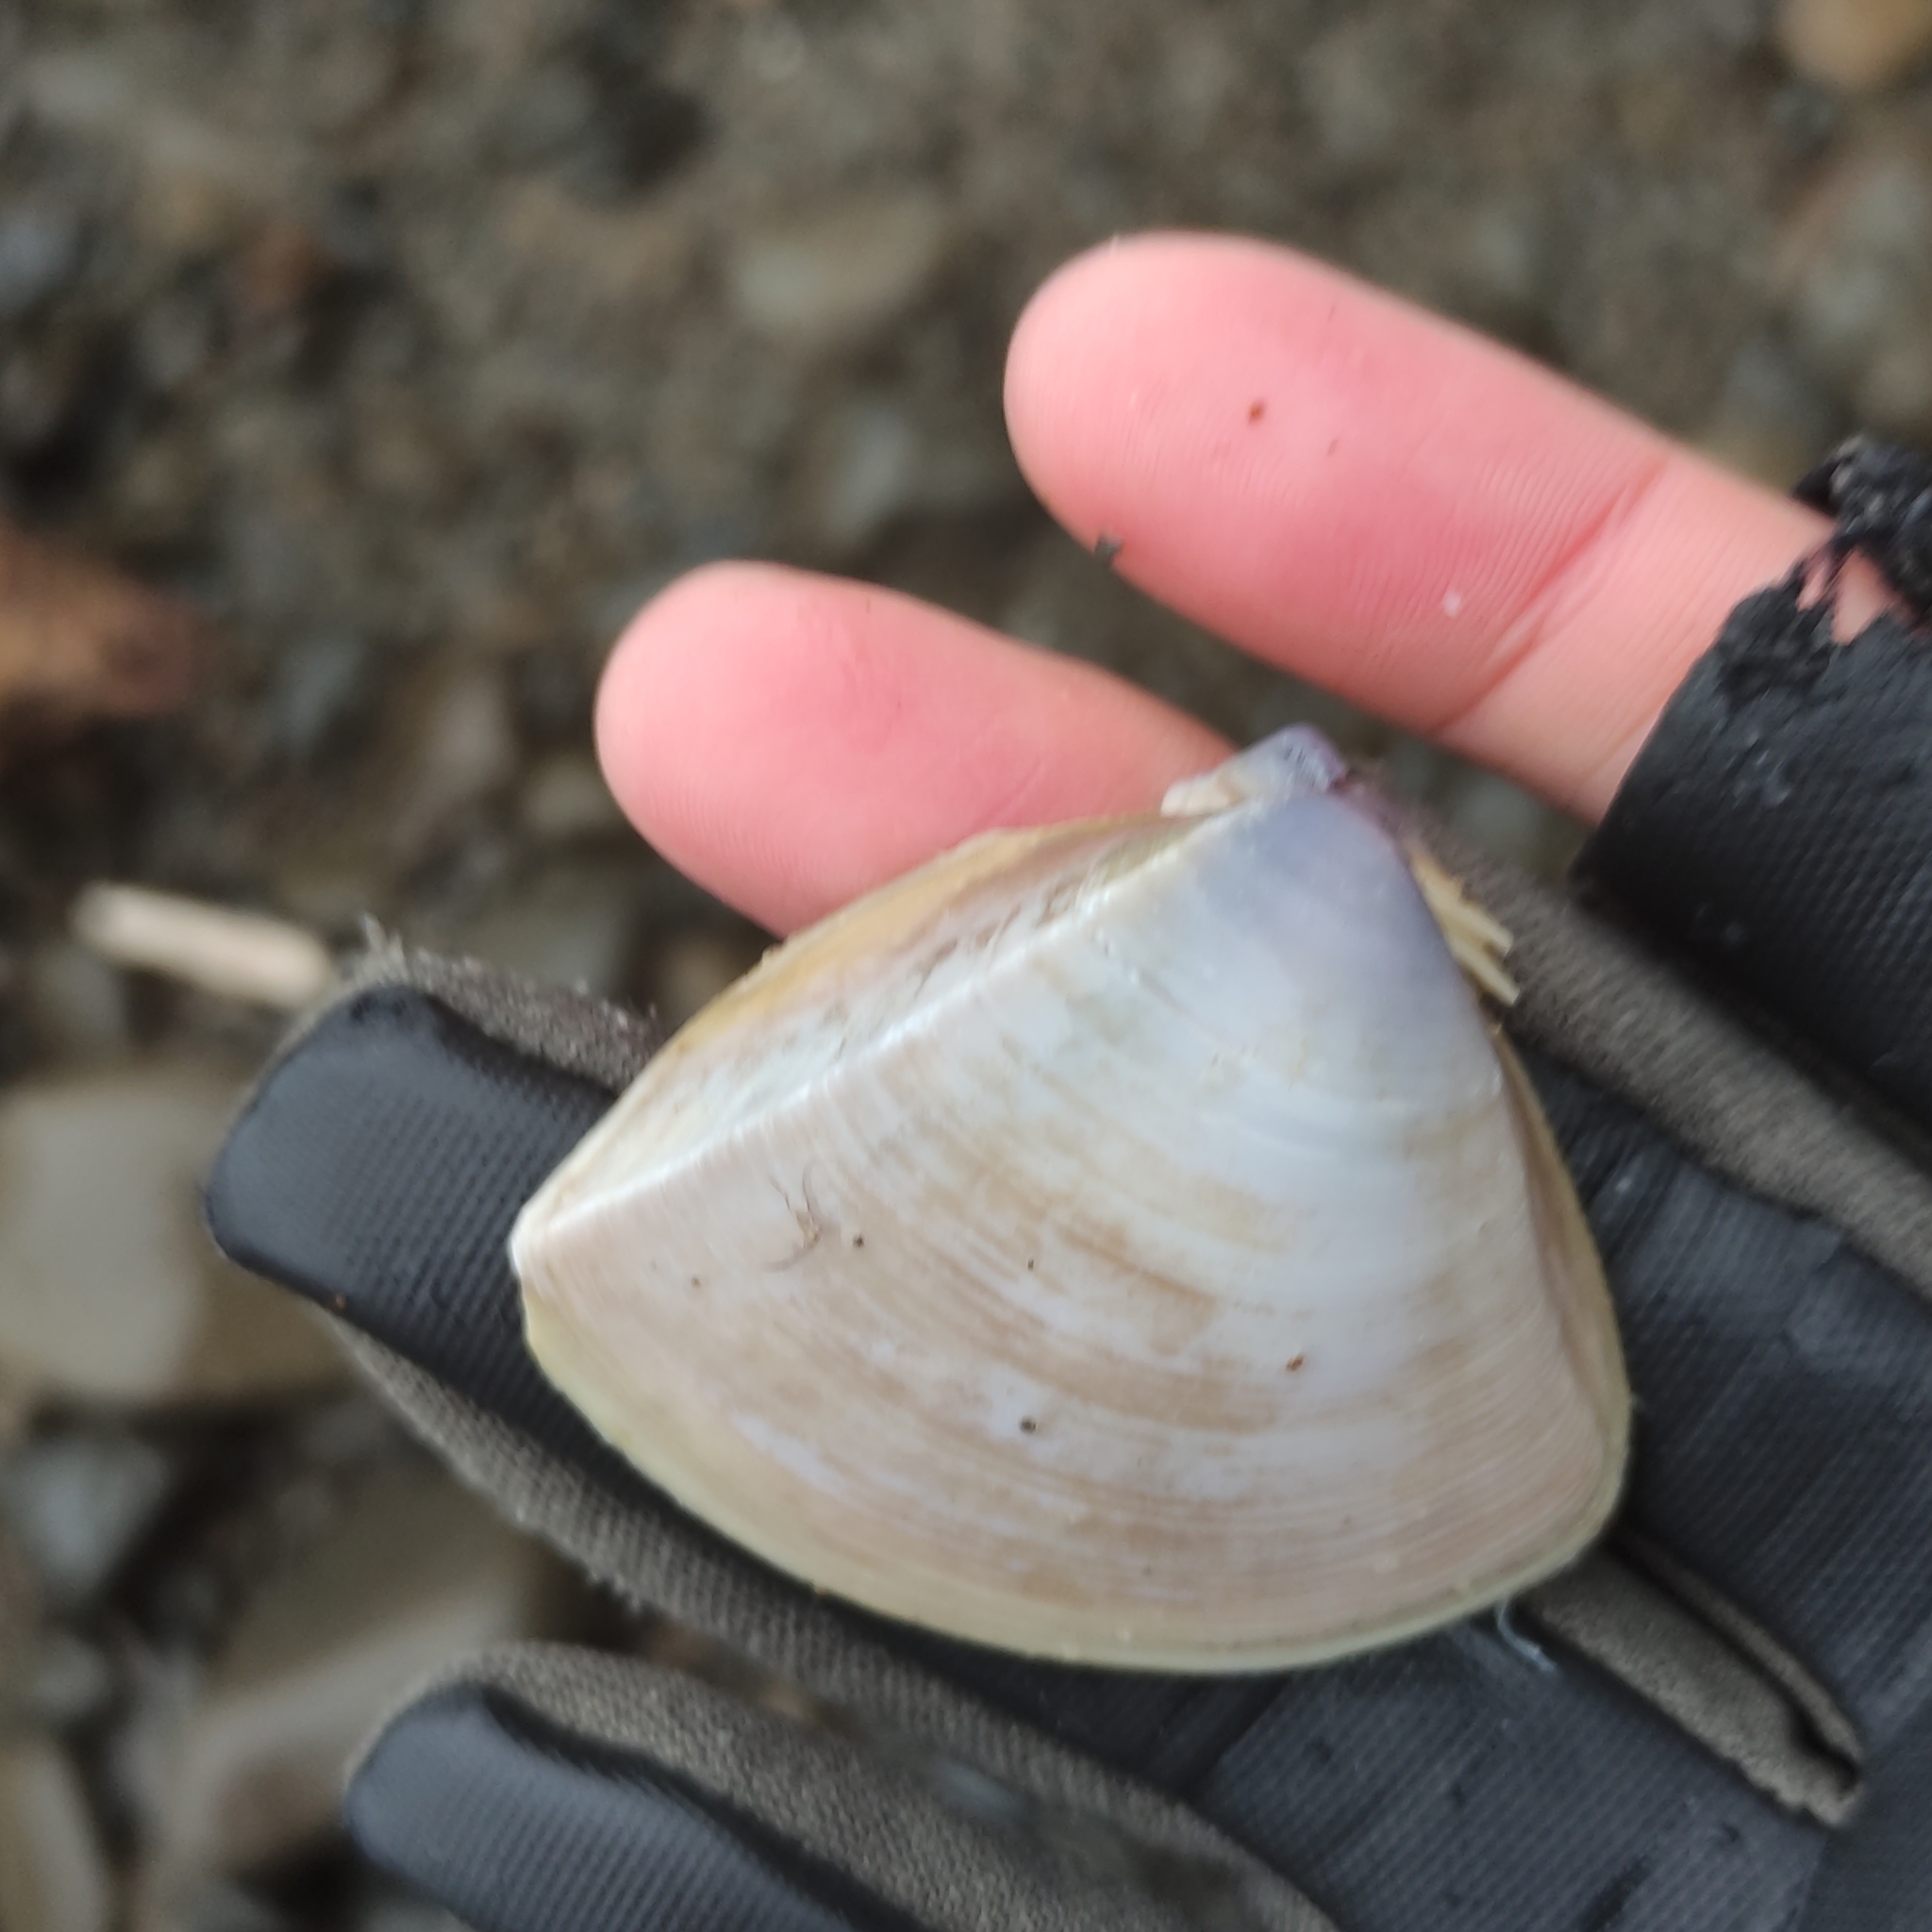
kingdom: Animalia
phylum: Mollusca
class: Bivalvia
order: Venerida
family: Mactridae
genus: Crassula
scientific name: Crassula aequilatera
